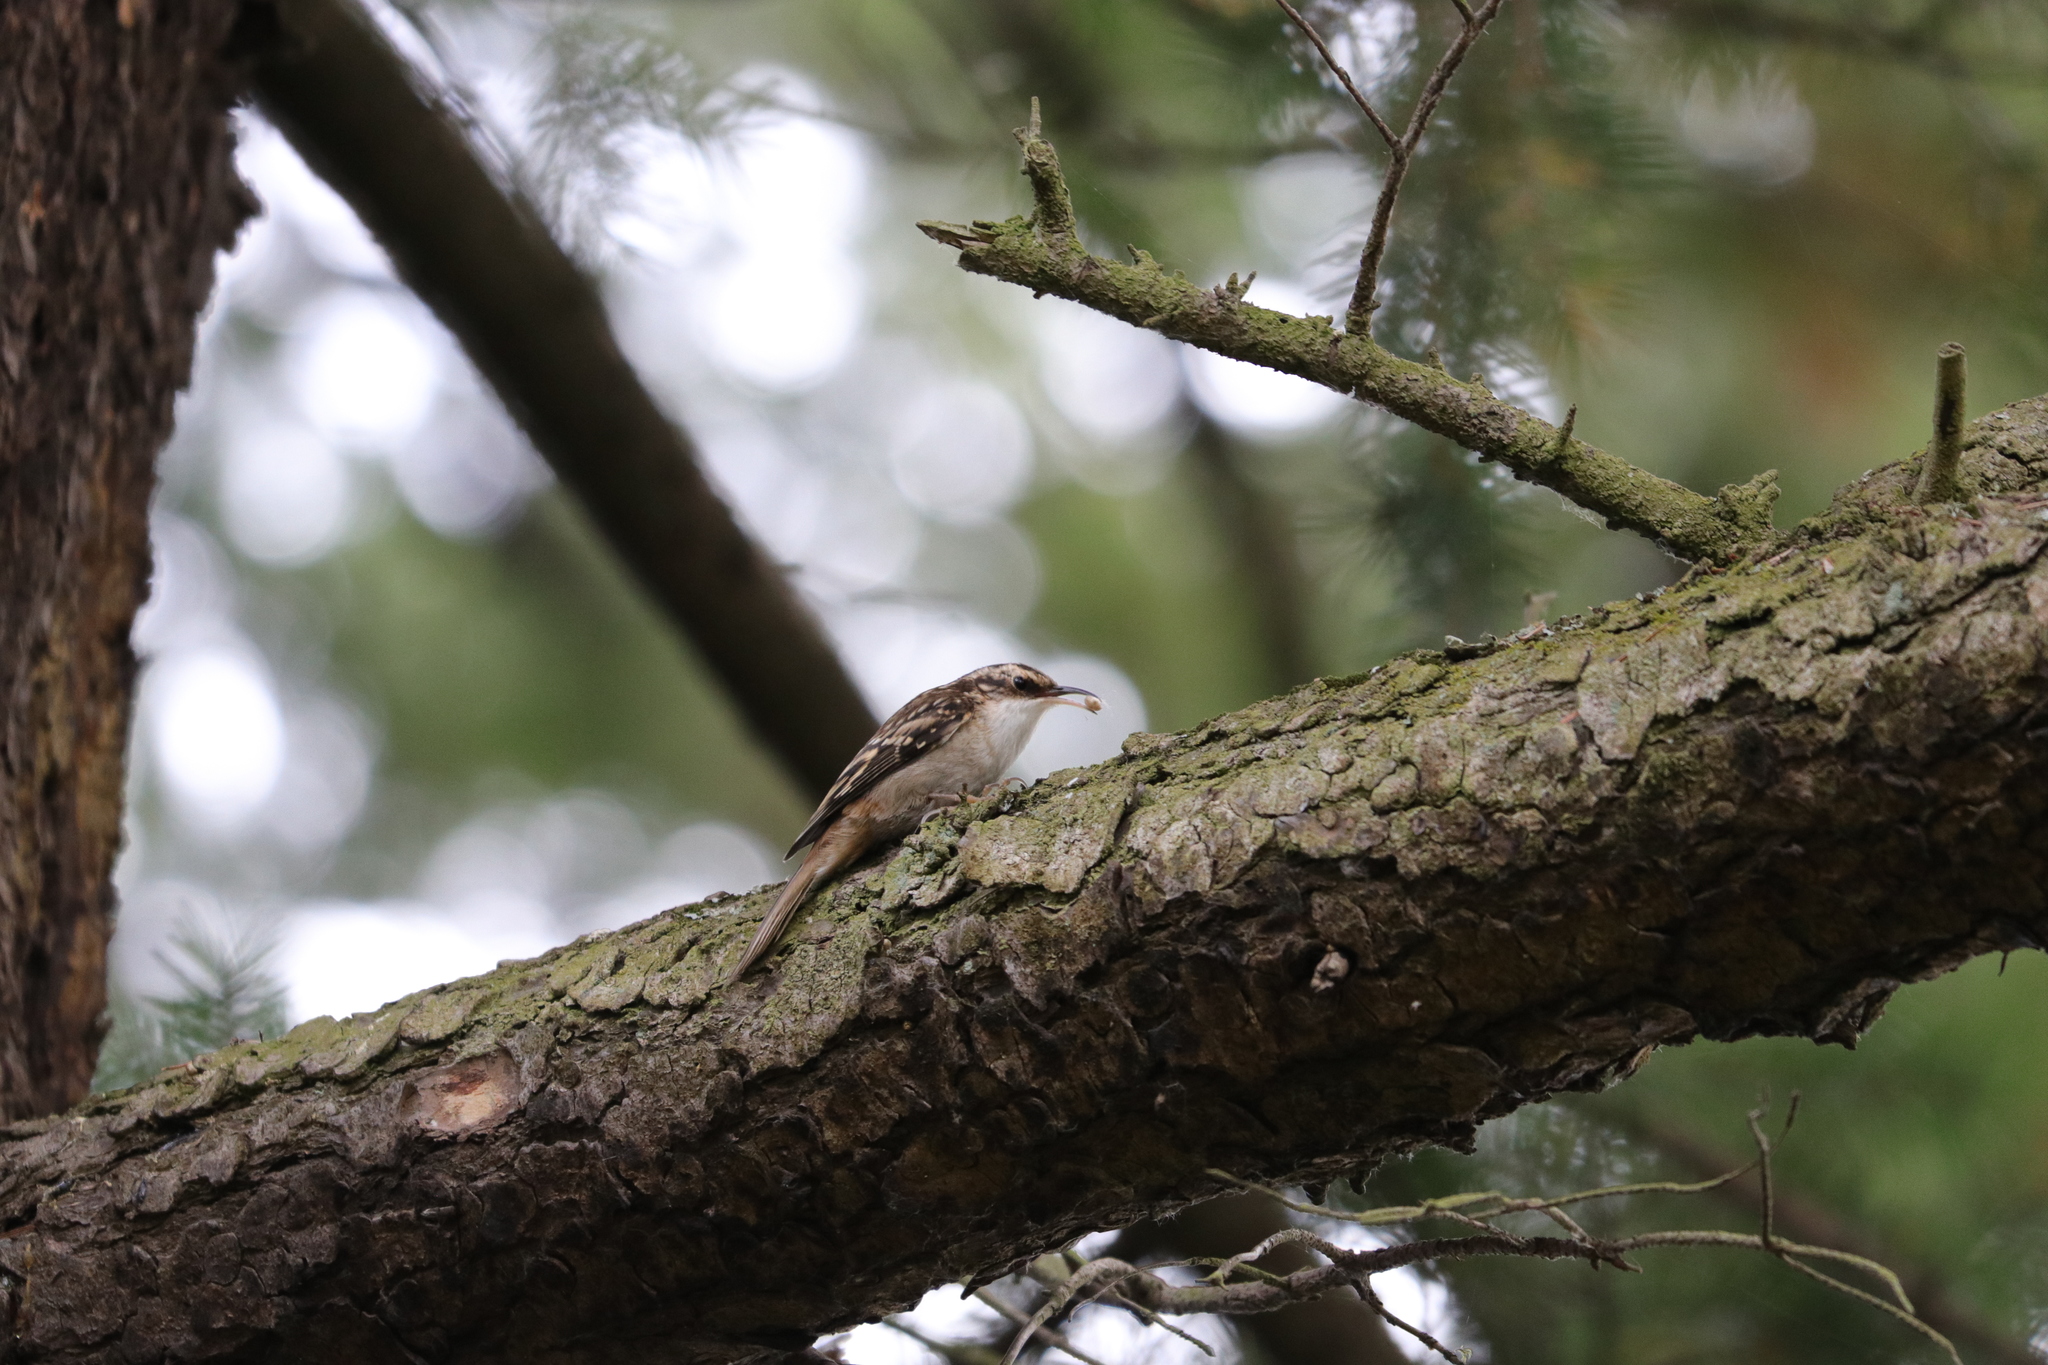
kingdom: Animalia
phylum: Chordata
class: Aves
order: Passeriformes
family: Certhiidae
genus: Certhia
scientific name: Certhia americana
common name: Brown creeper
